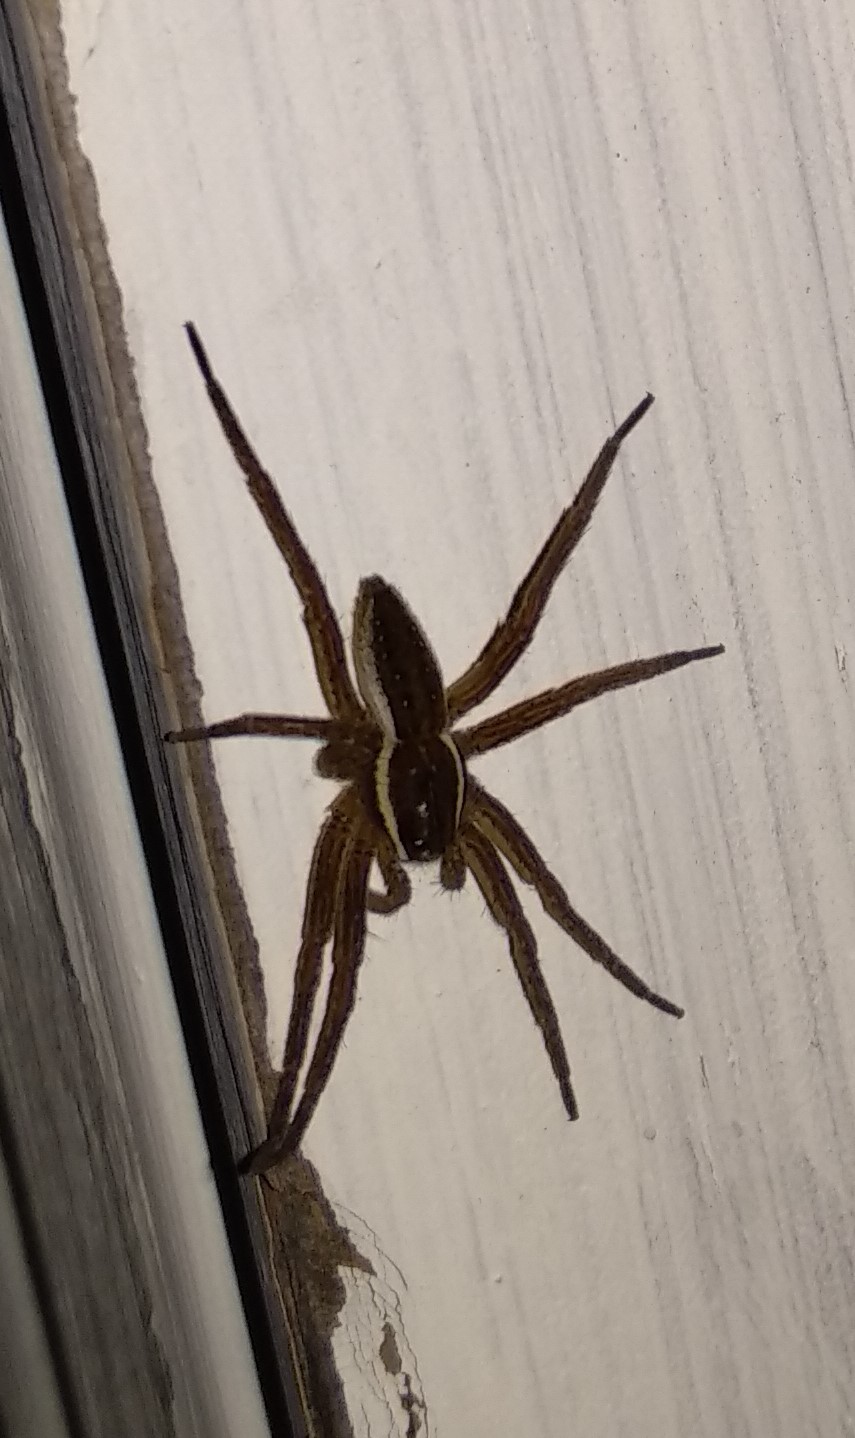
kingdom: Animalia
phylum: Arthropoda
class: Arachnida
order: Araneae
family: Pisauridae
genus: Dolomedes
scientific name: Dolomedes triton
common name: Six-spotted fishing spider
